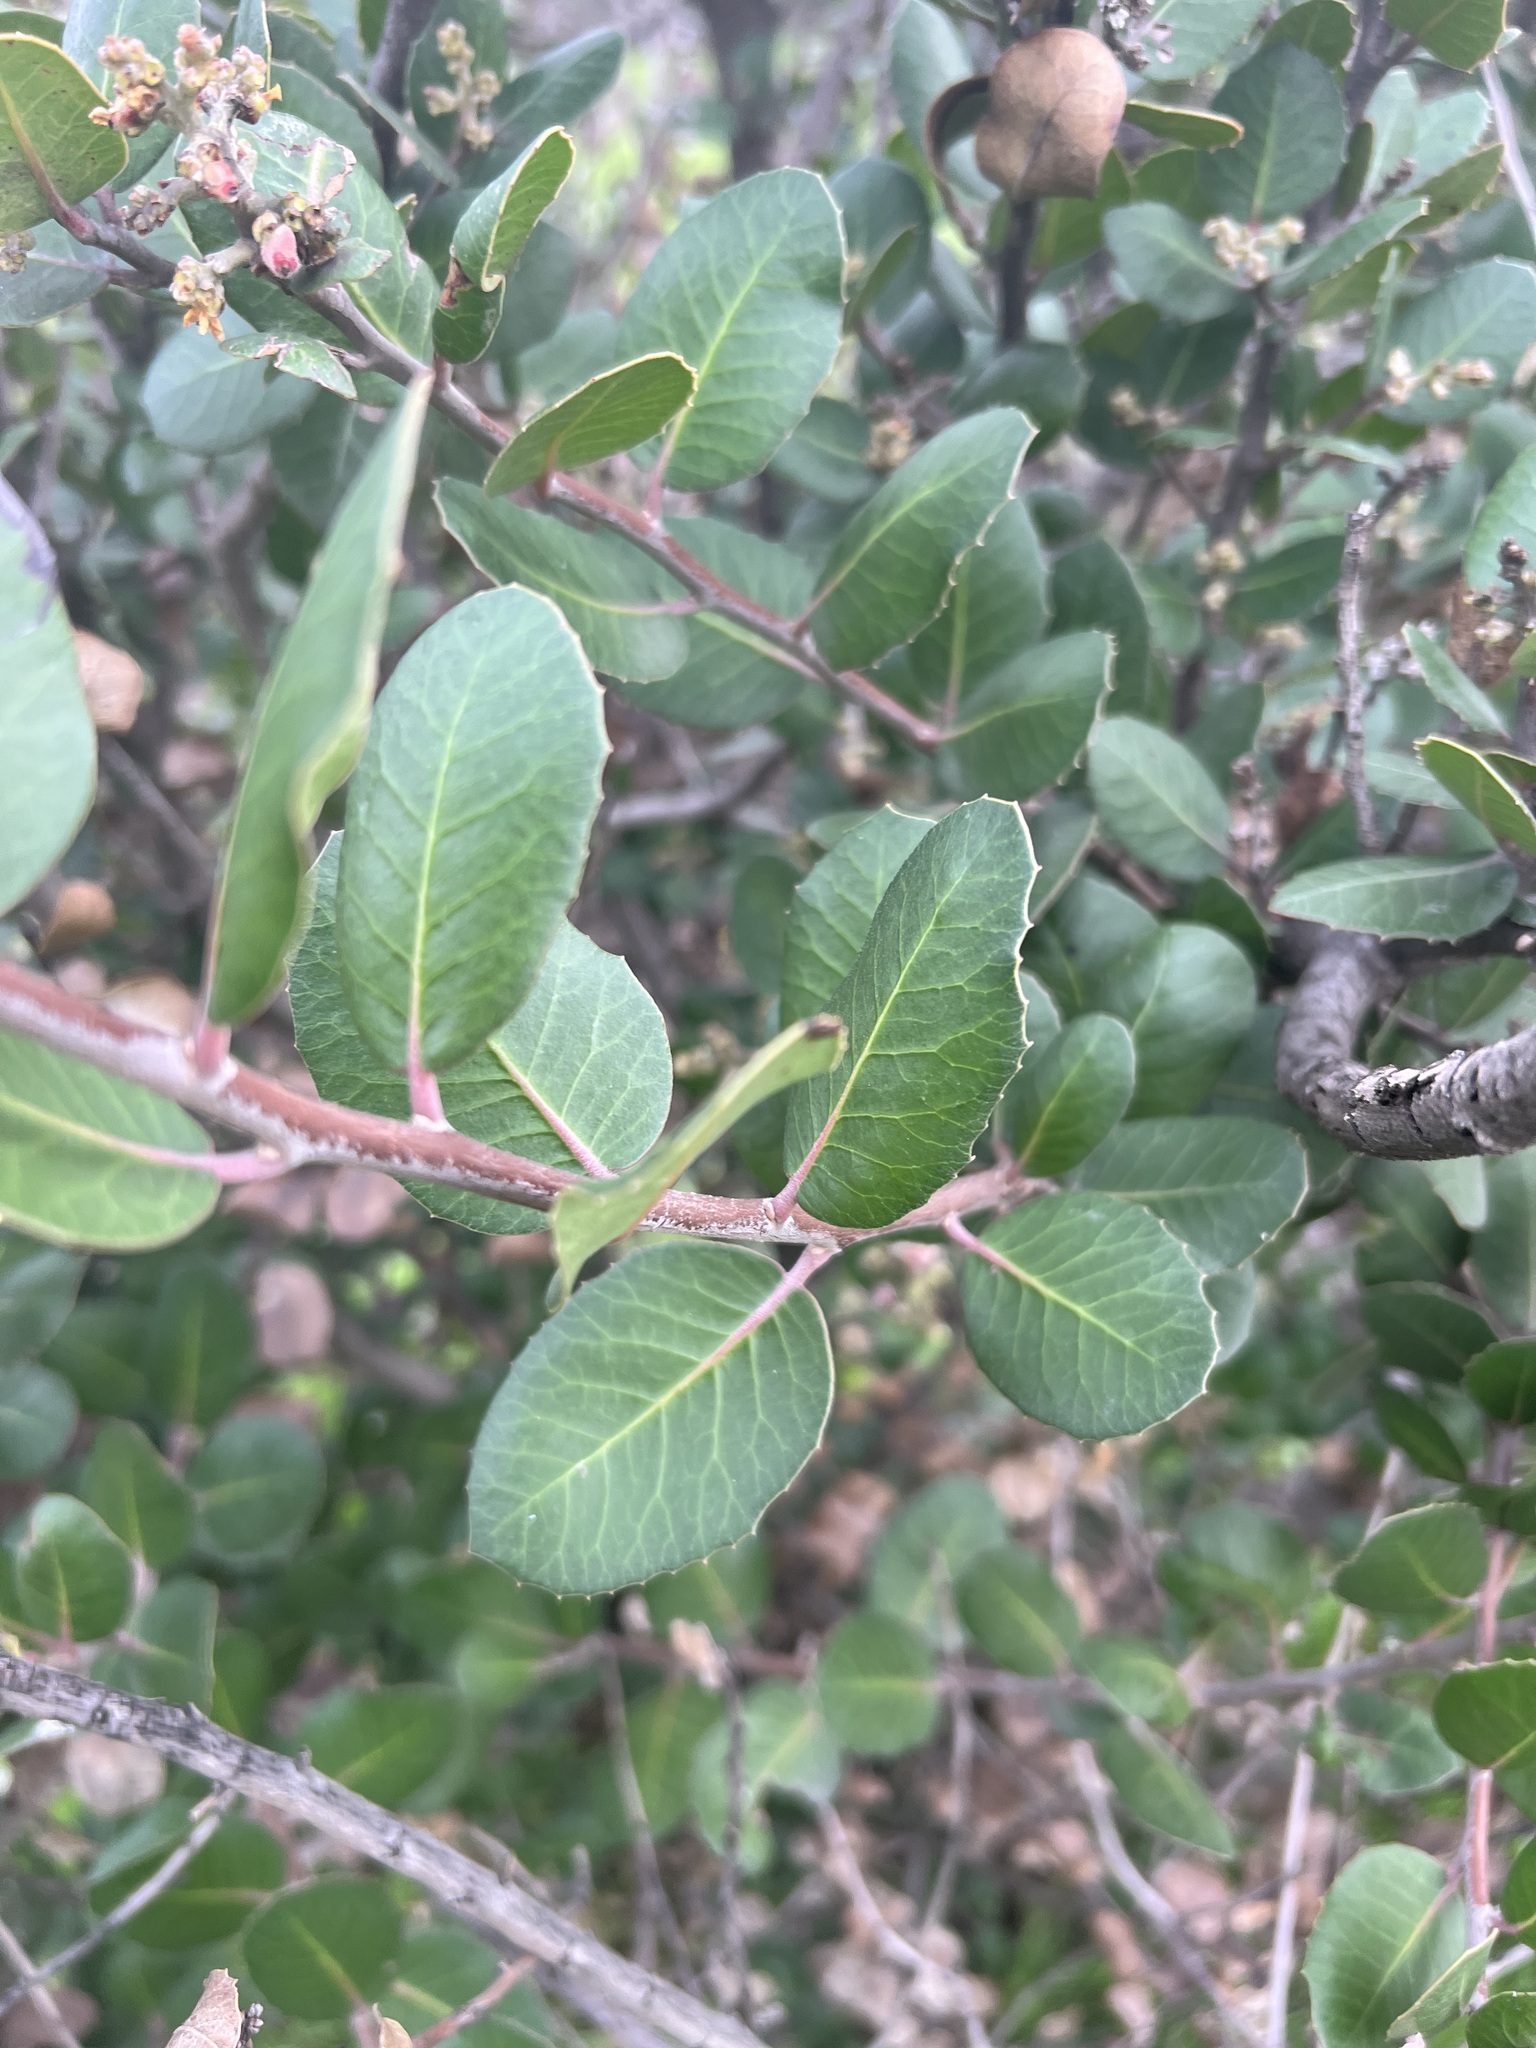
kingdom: Plantae
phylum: Tracheophyta
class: Magnoliopsida
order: Sapindales
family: Anacardiaceae
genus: Rhus
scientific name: Rhus integrifolia
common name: Lemonade sumac
